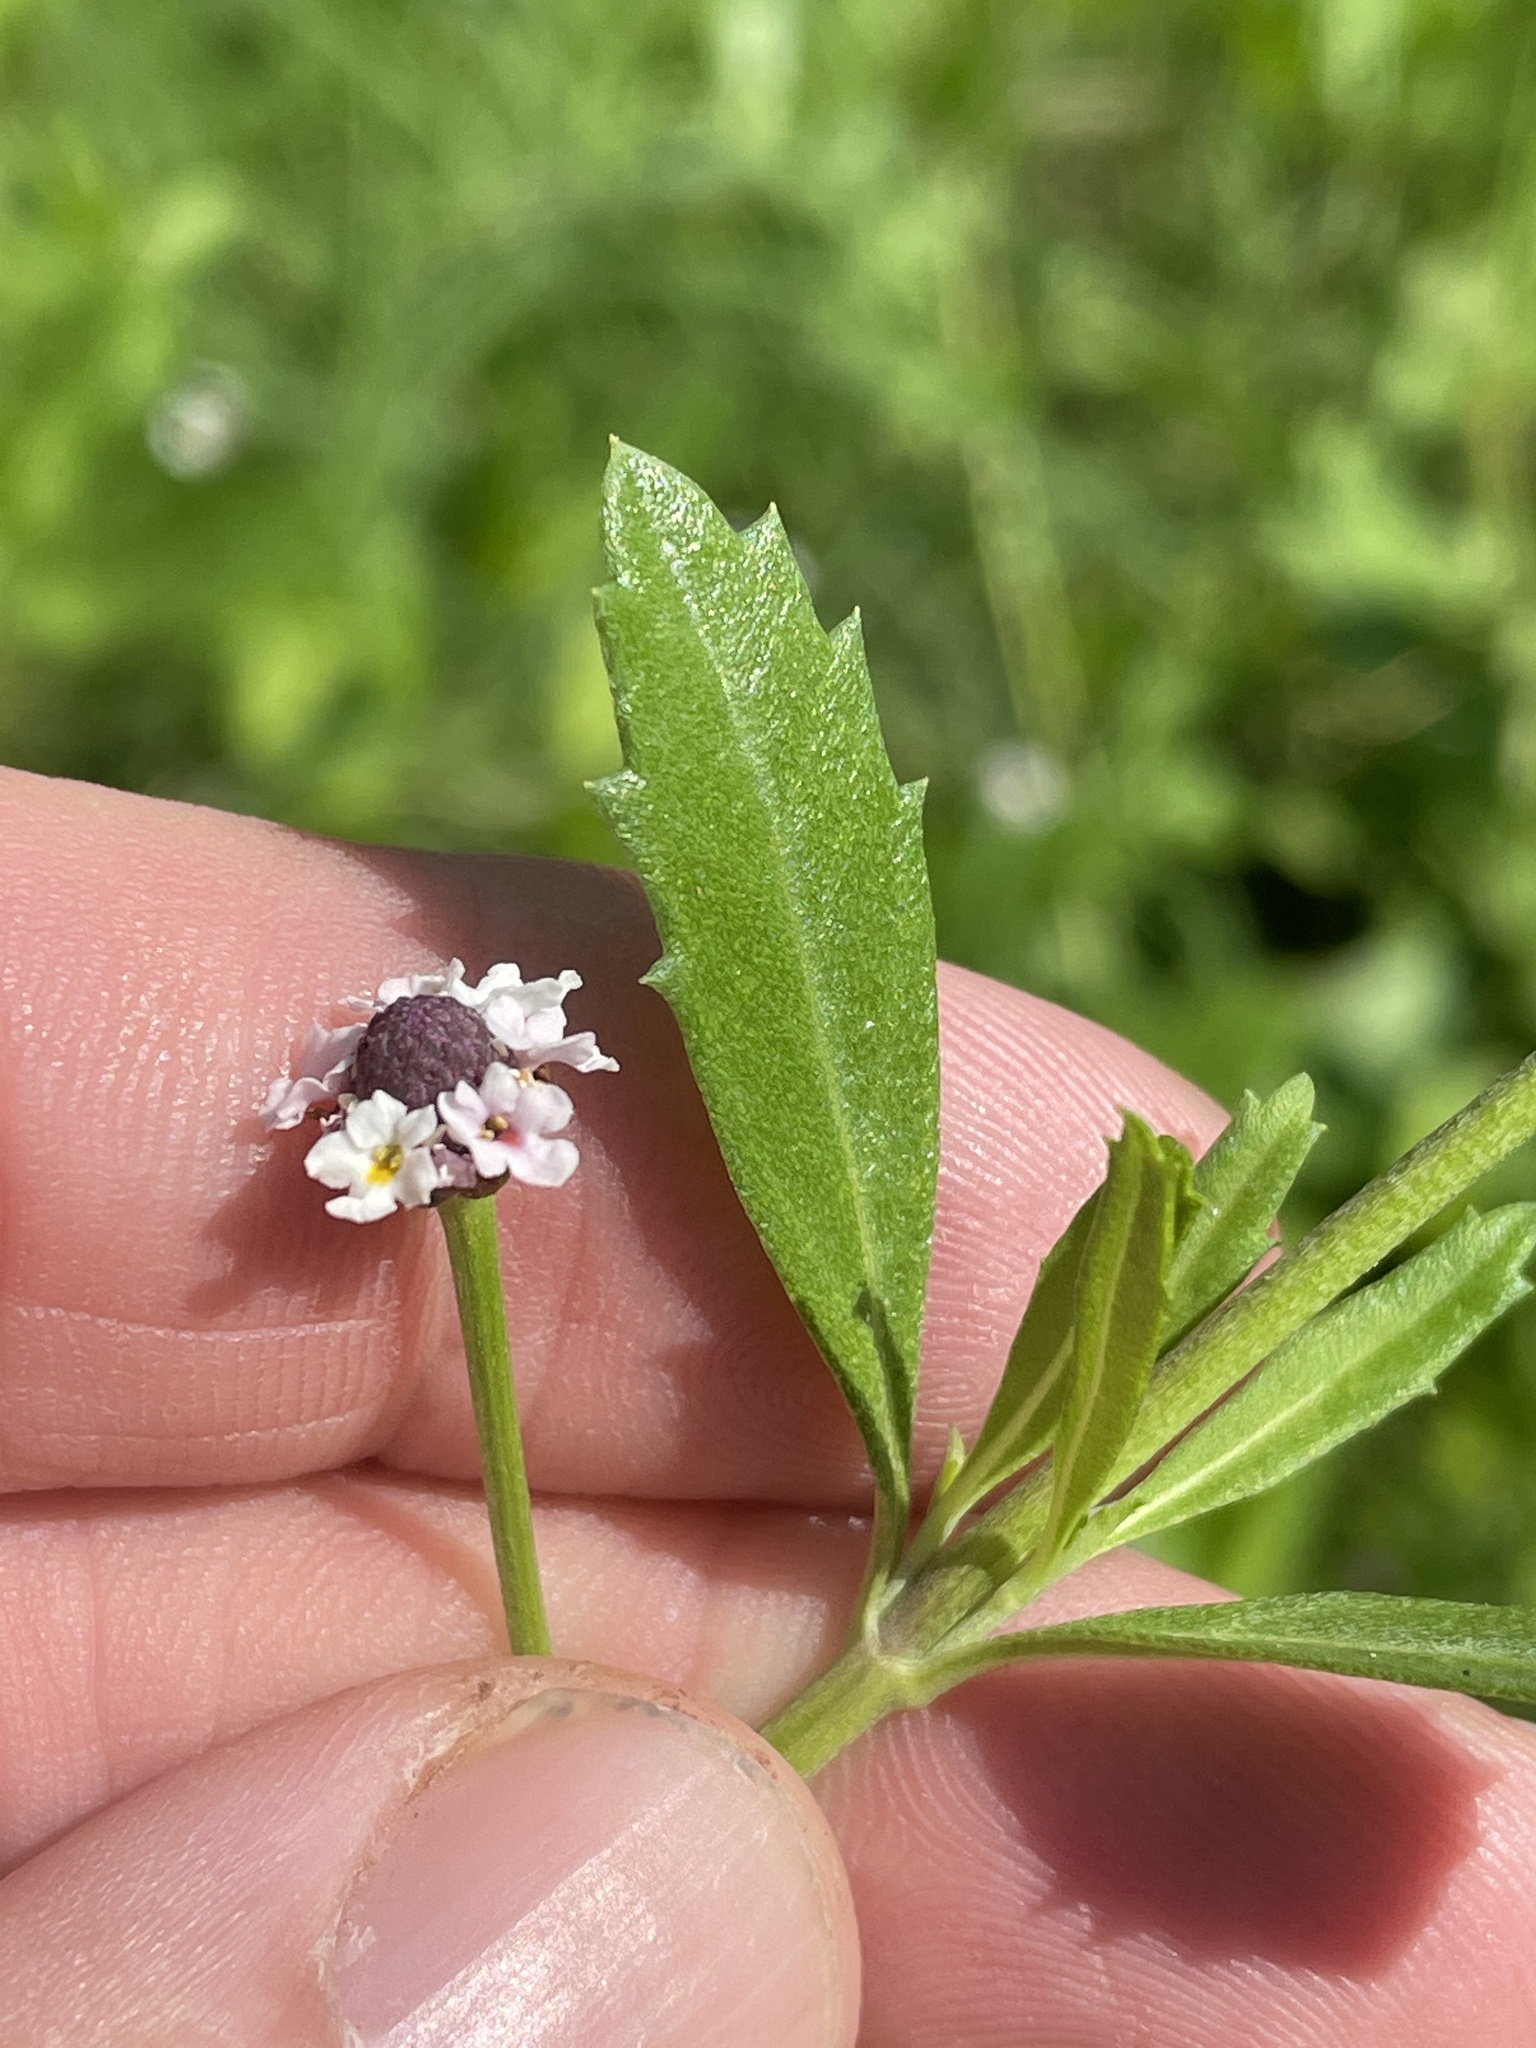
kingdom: Plantae
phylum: Tracheophyta
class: Magnoliopsida
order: Lamiales
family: Verbenaceae
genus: Phyla
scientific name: Phyla nodiflora
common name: Frogfruit
